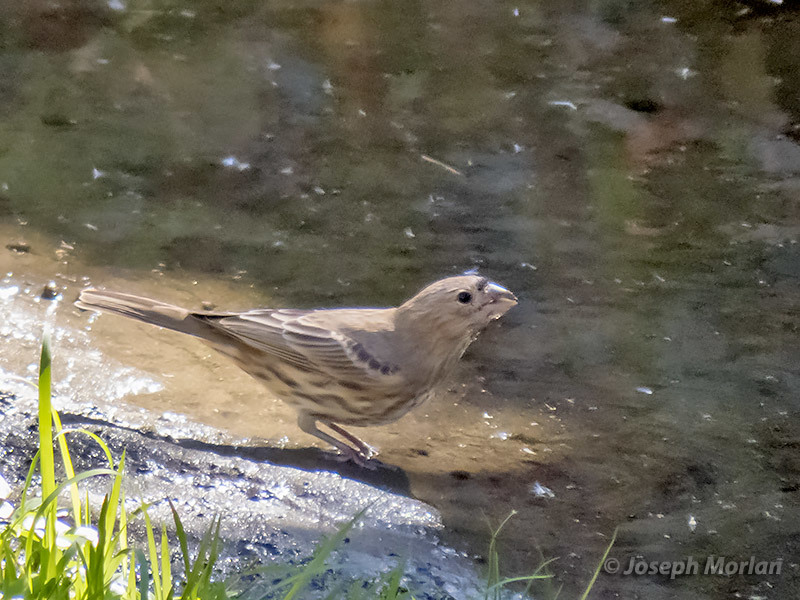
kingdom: Animalia
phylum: Chordata
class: Aves
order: Passeriformes
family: Fringillidae
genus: Haemorhous
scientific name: Haemorhous mexicanus
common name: House finch
